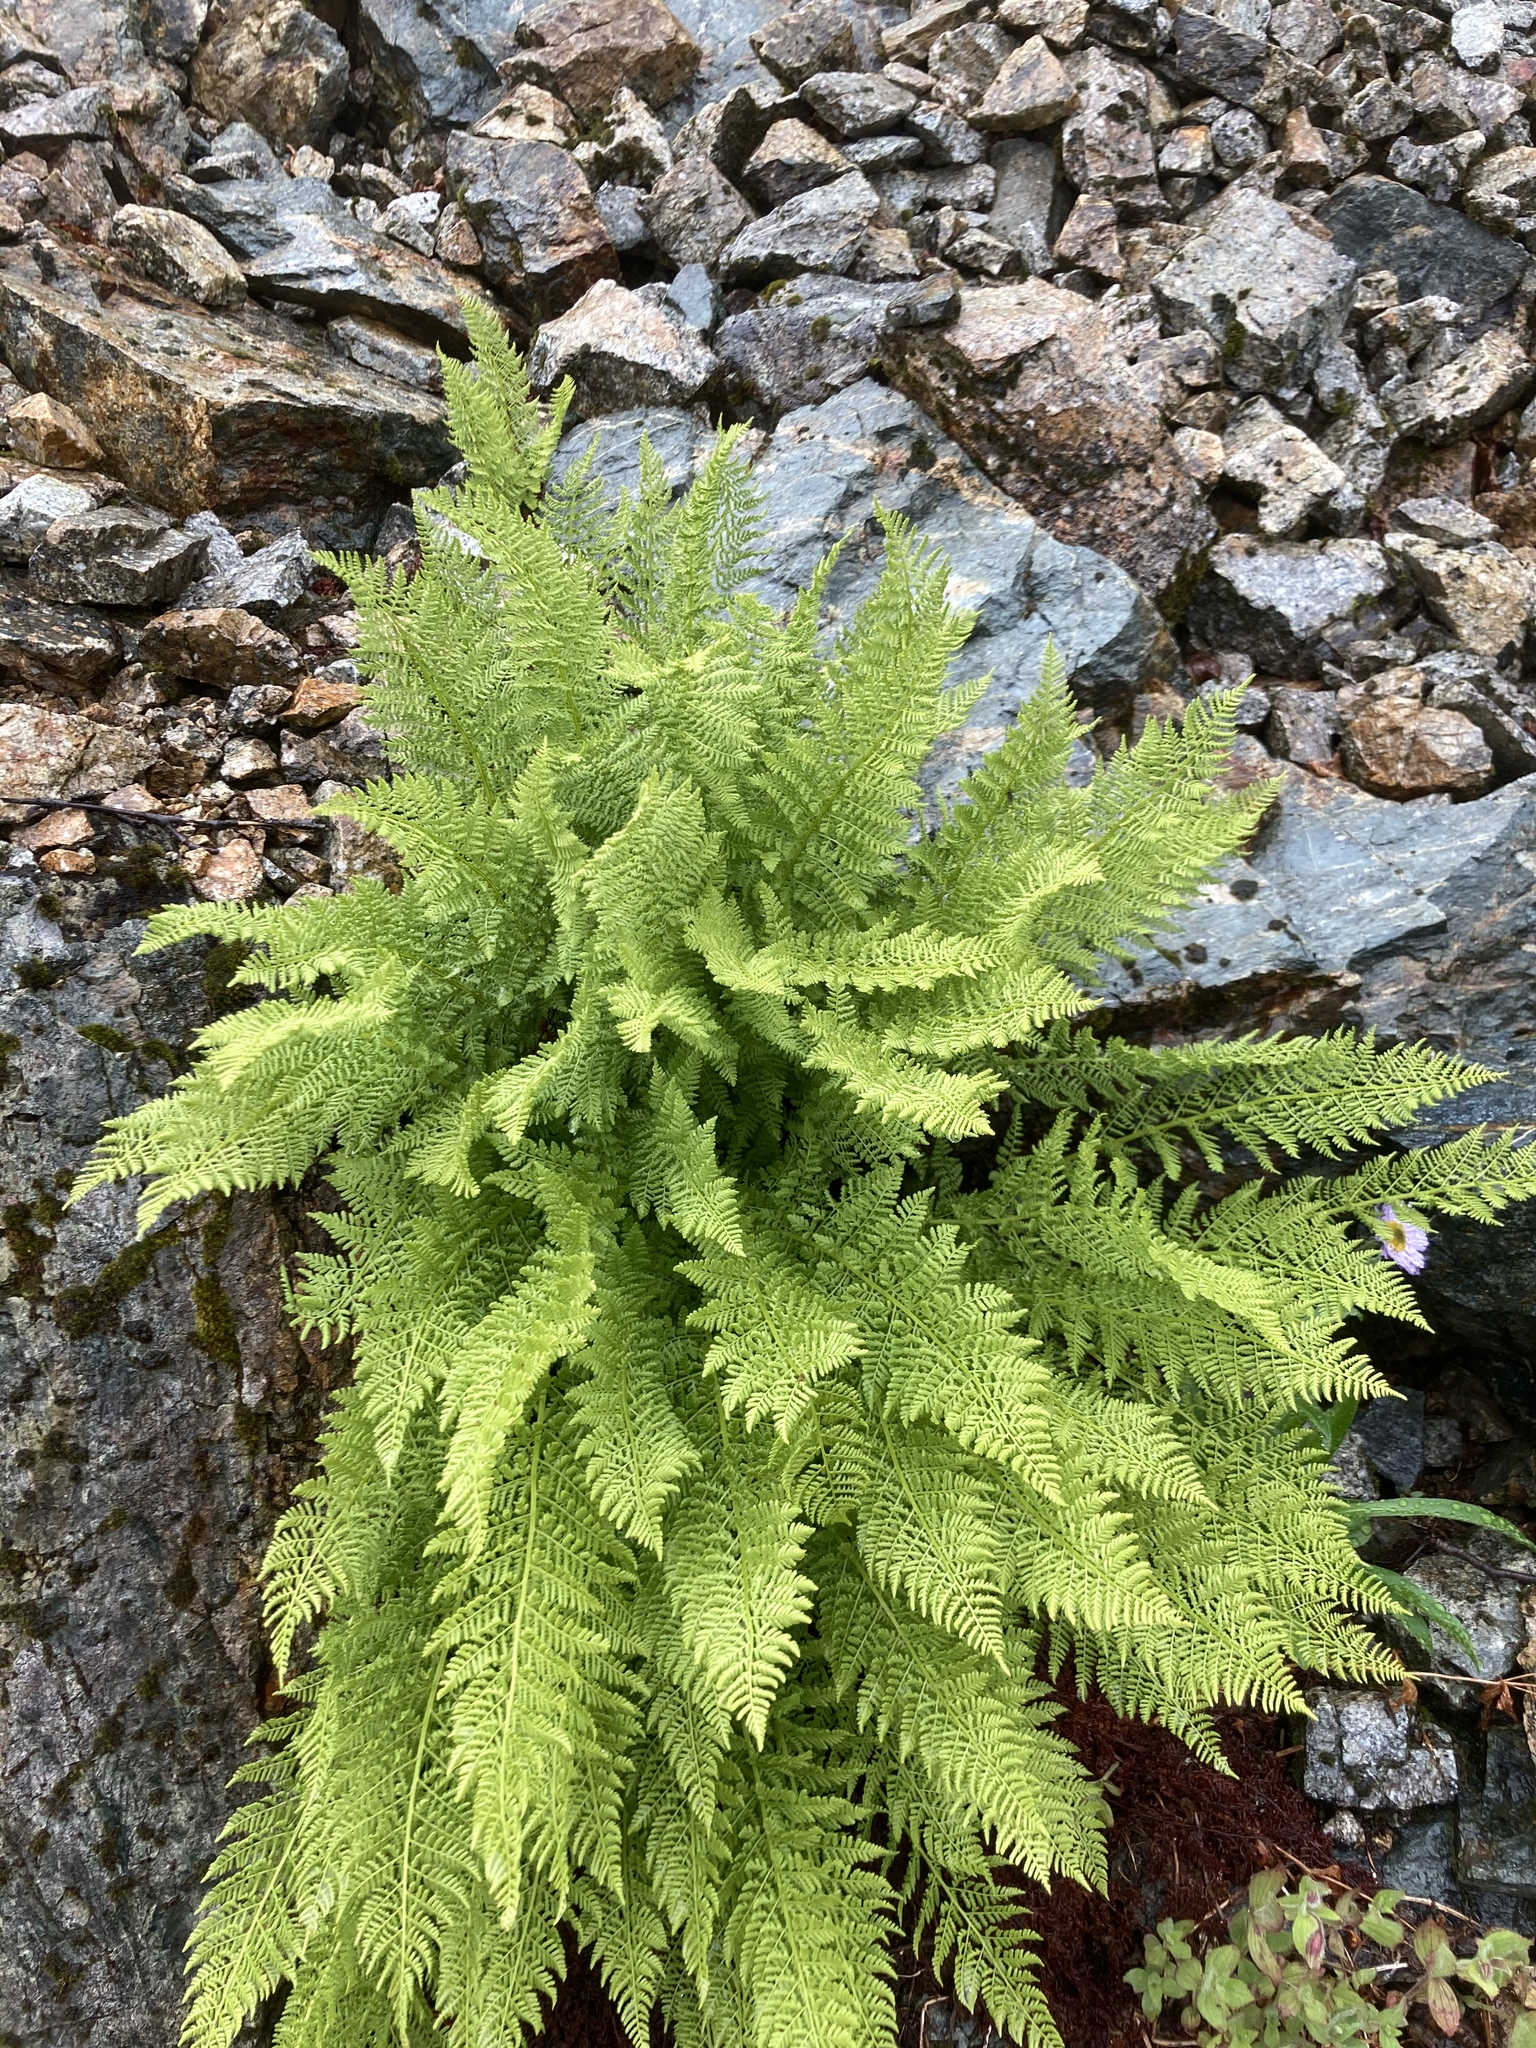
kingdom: Plantae
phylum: Tracheophyta
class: Polypodiopsida
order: Polypodiales
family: Athyriaceae
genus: Athyrium
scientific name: Athyrium americanum
